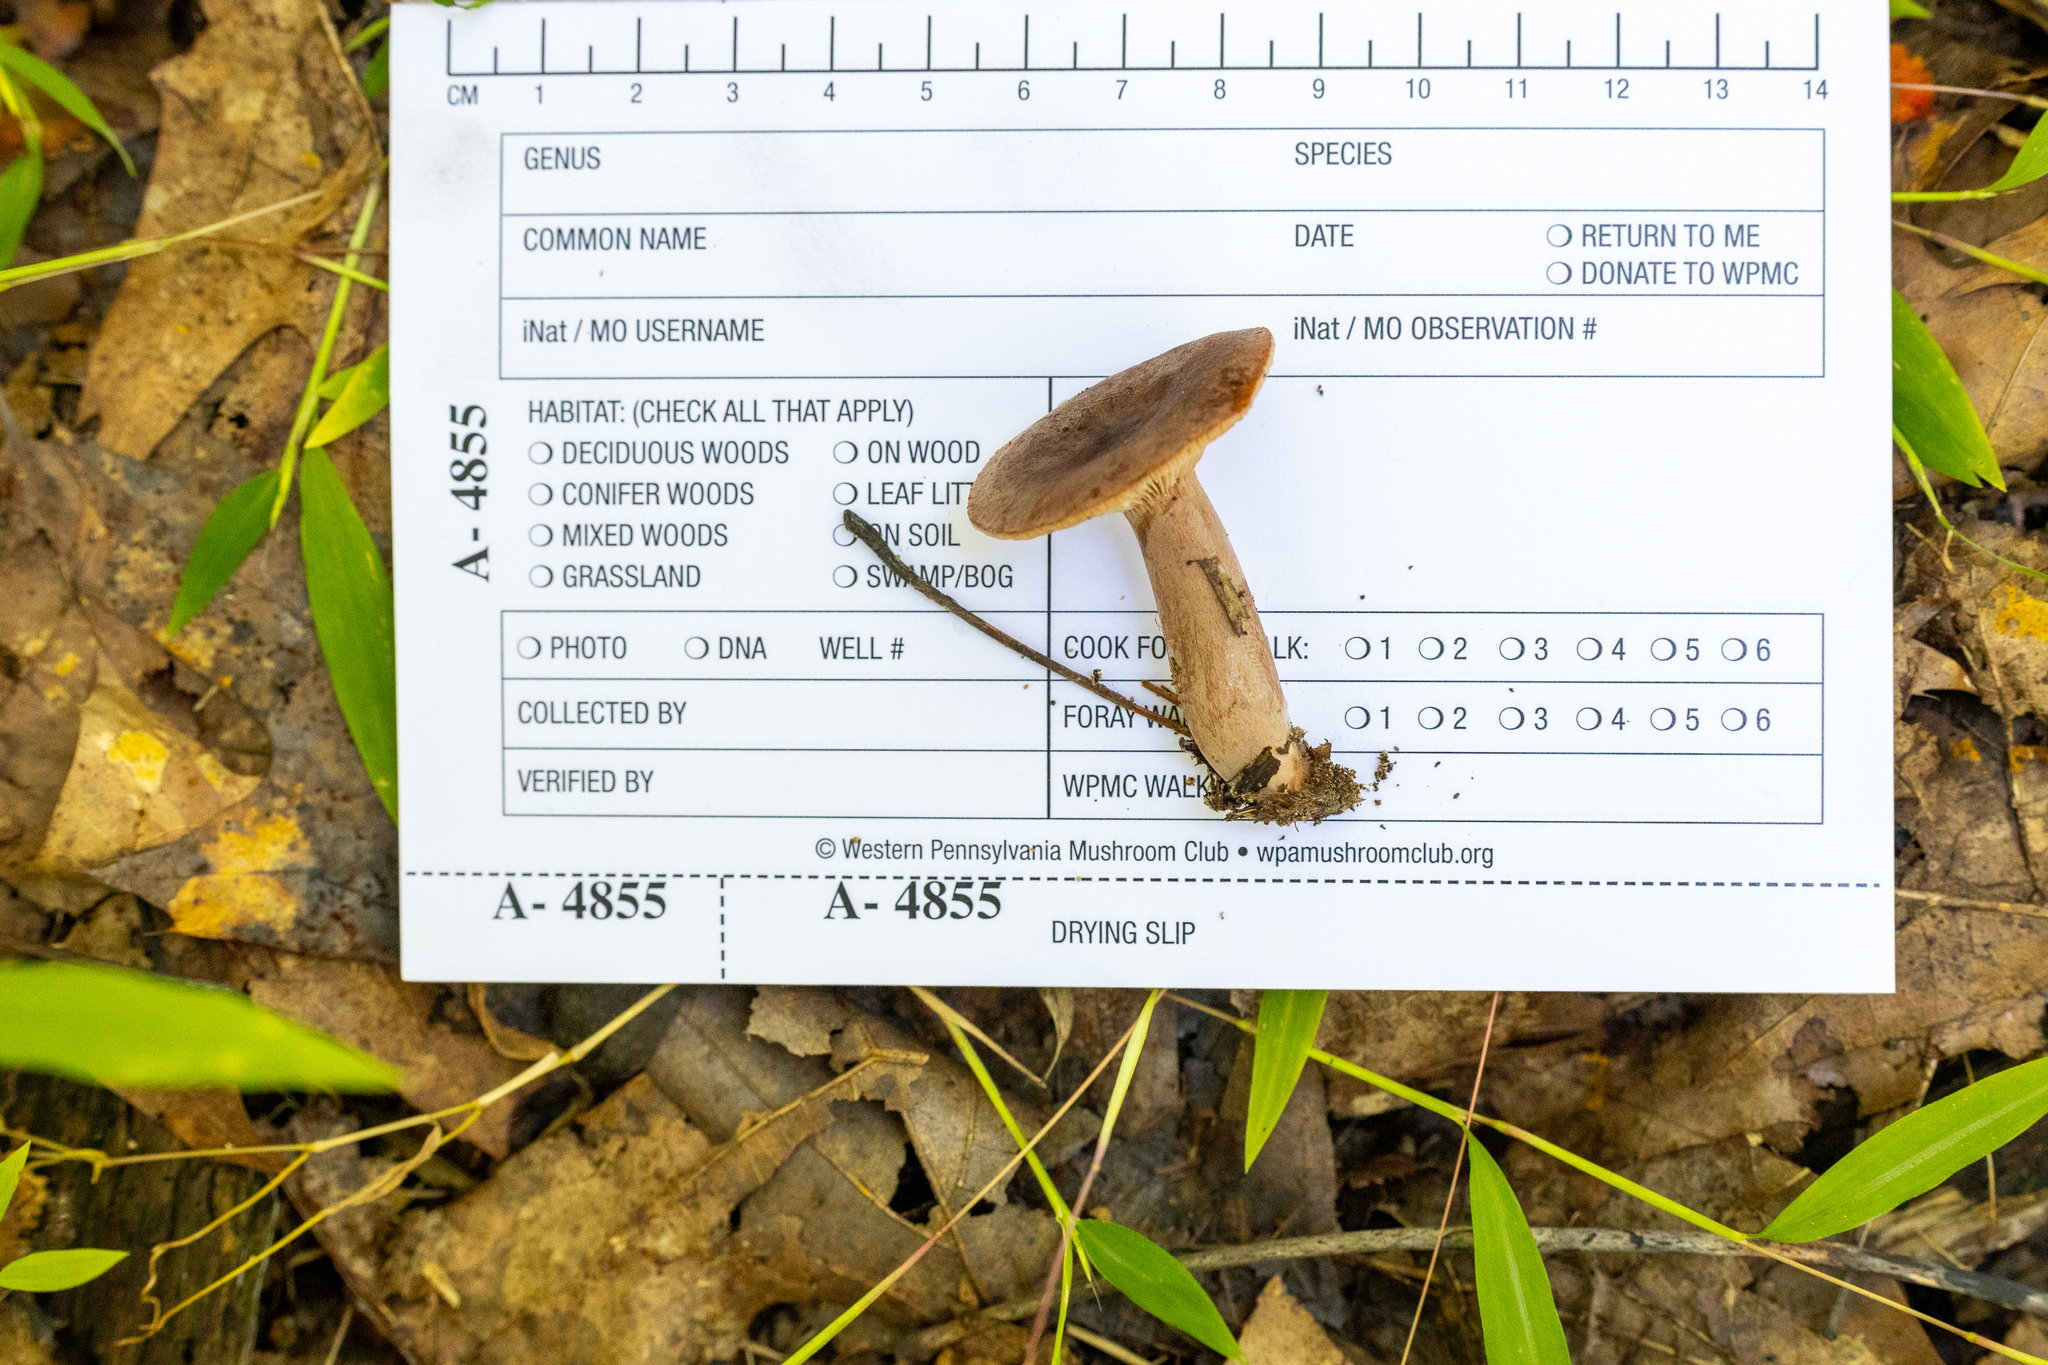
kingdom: Fungi
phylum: Basidiomycota
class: Agaricomycetes
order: Russulales
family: Russulaceae
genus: Lactarius
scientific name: Lactarius quietus
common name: Oak milk-cap
